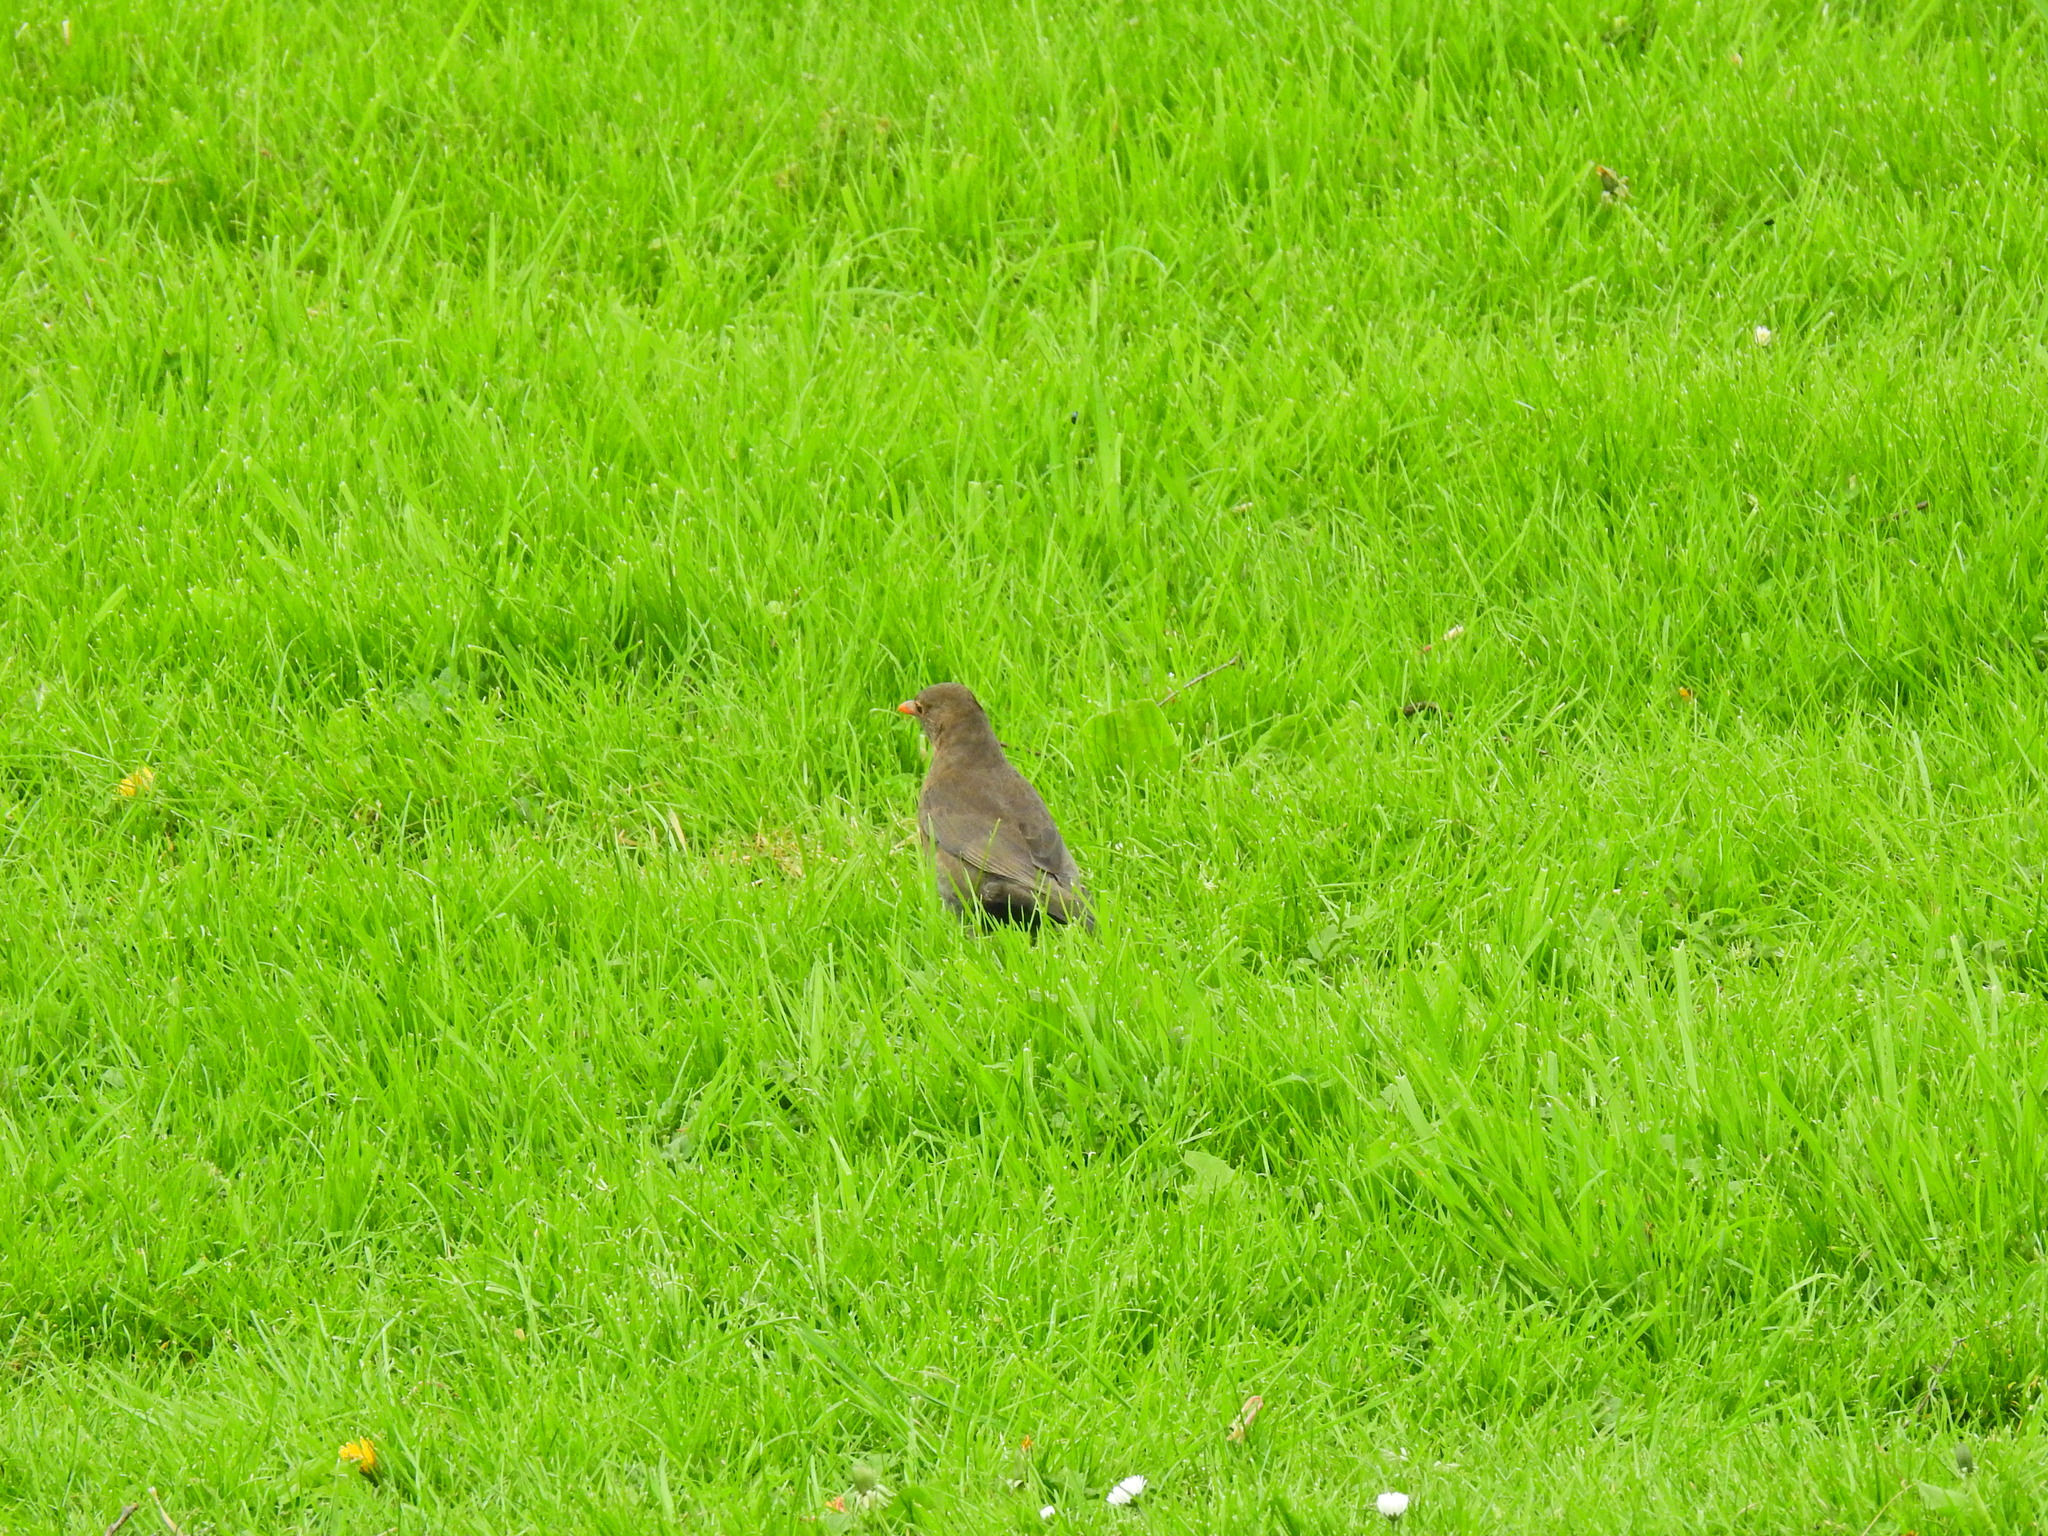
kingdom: Animalia
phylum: Chordata
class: Aves
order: Passeriformes
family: Turdidae
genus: Turdus
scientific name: Turdus merula
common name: Common blackbird
